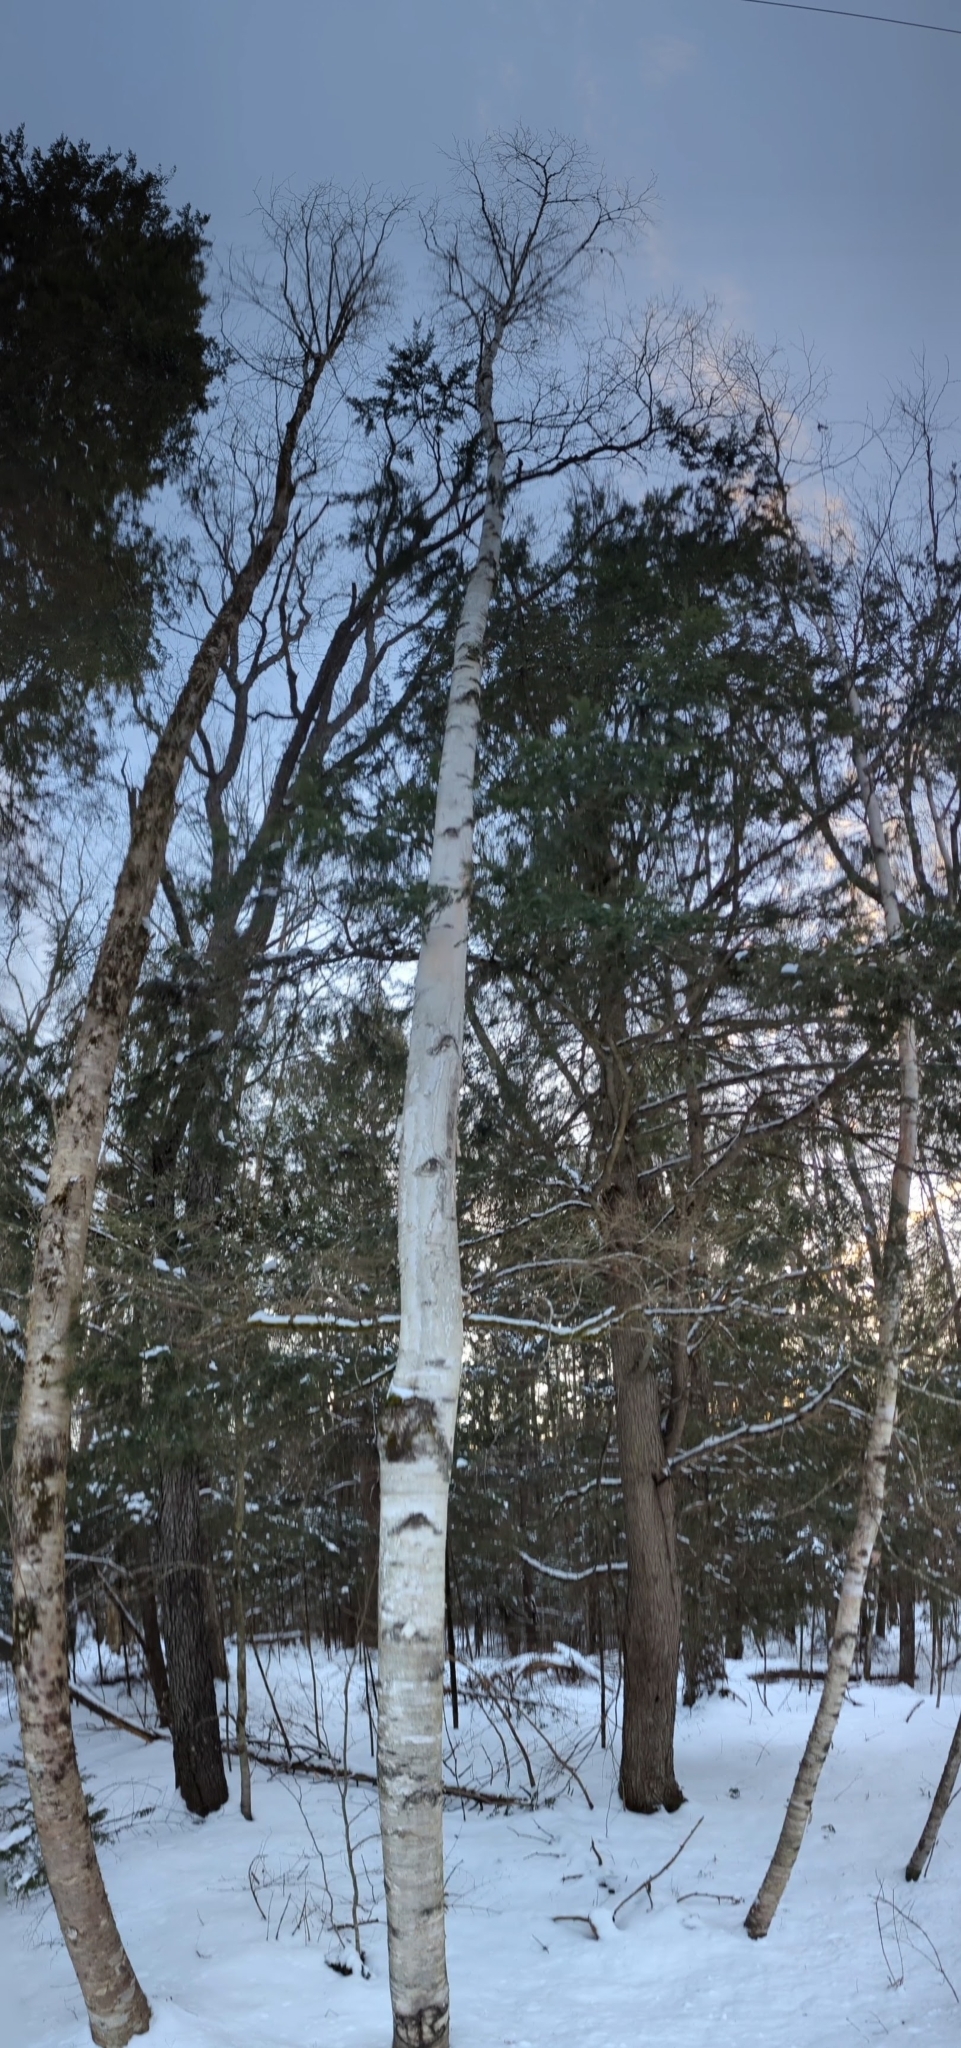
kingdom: Plantae
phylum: Tracheophyta
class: Magnoliopsida
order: Fagales
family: Betulaceae
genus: Betula
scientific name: Betula papyrifera
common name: Paper birch
